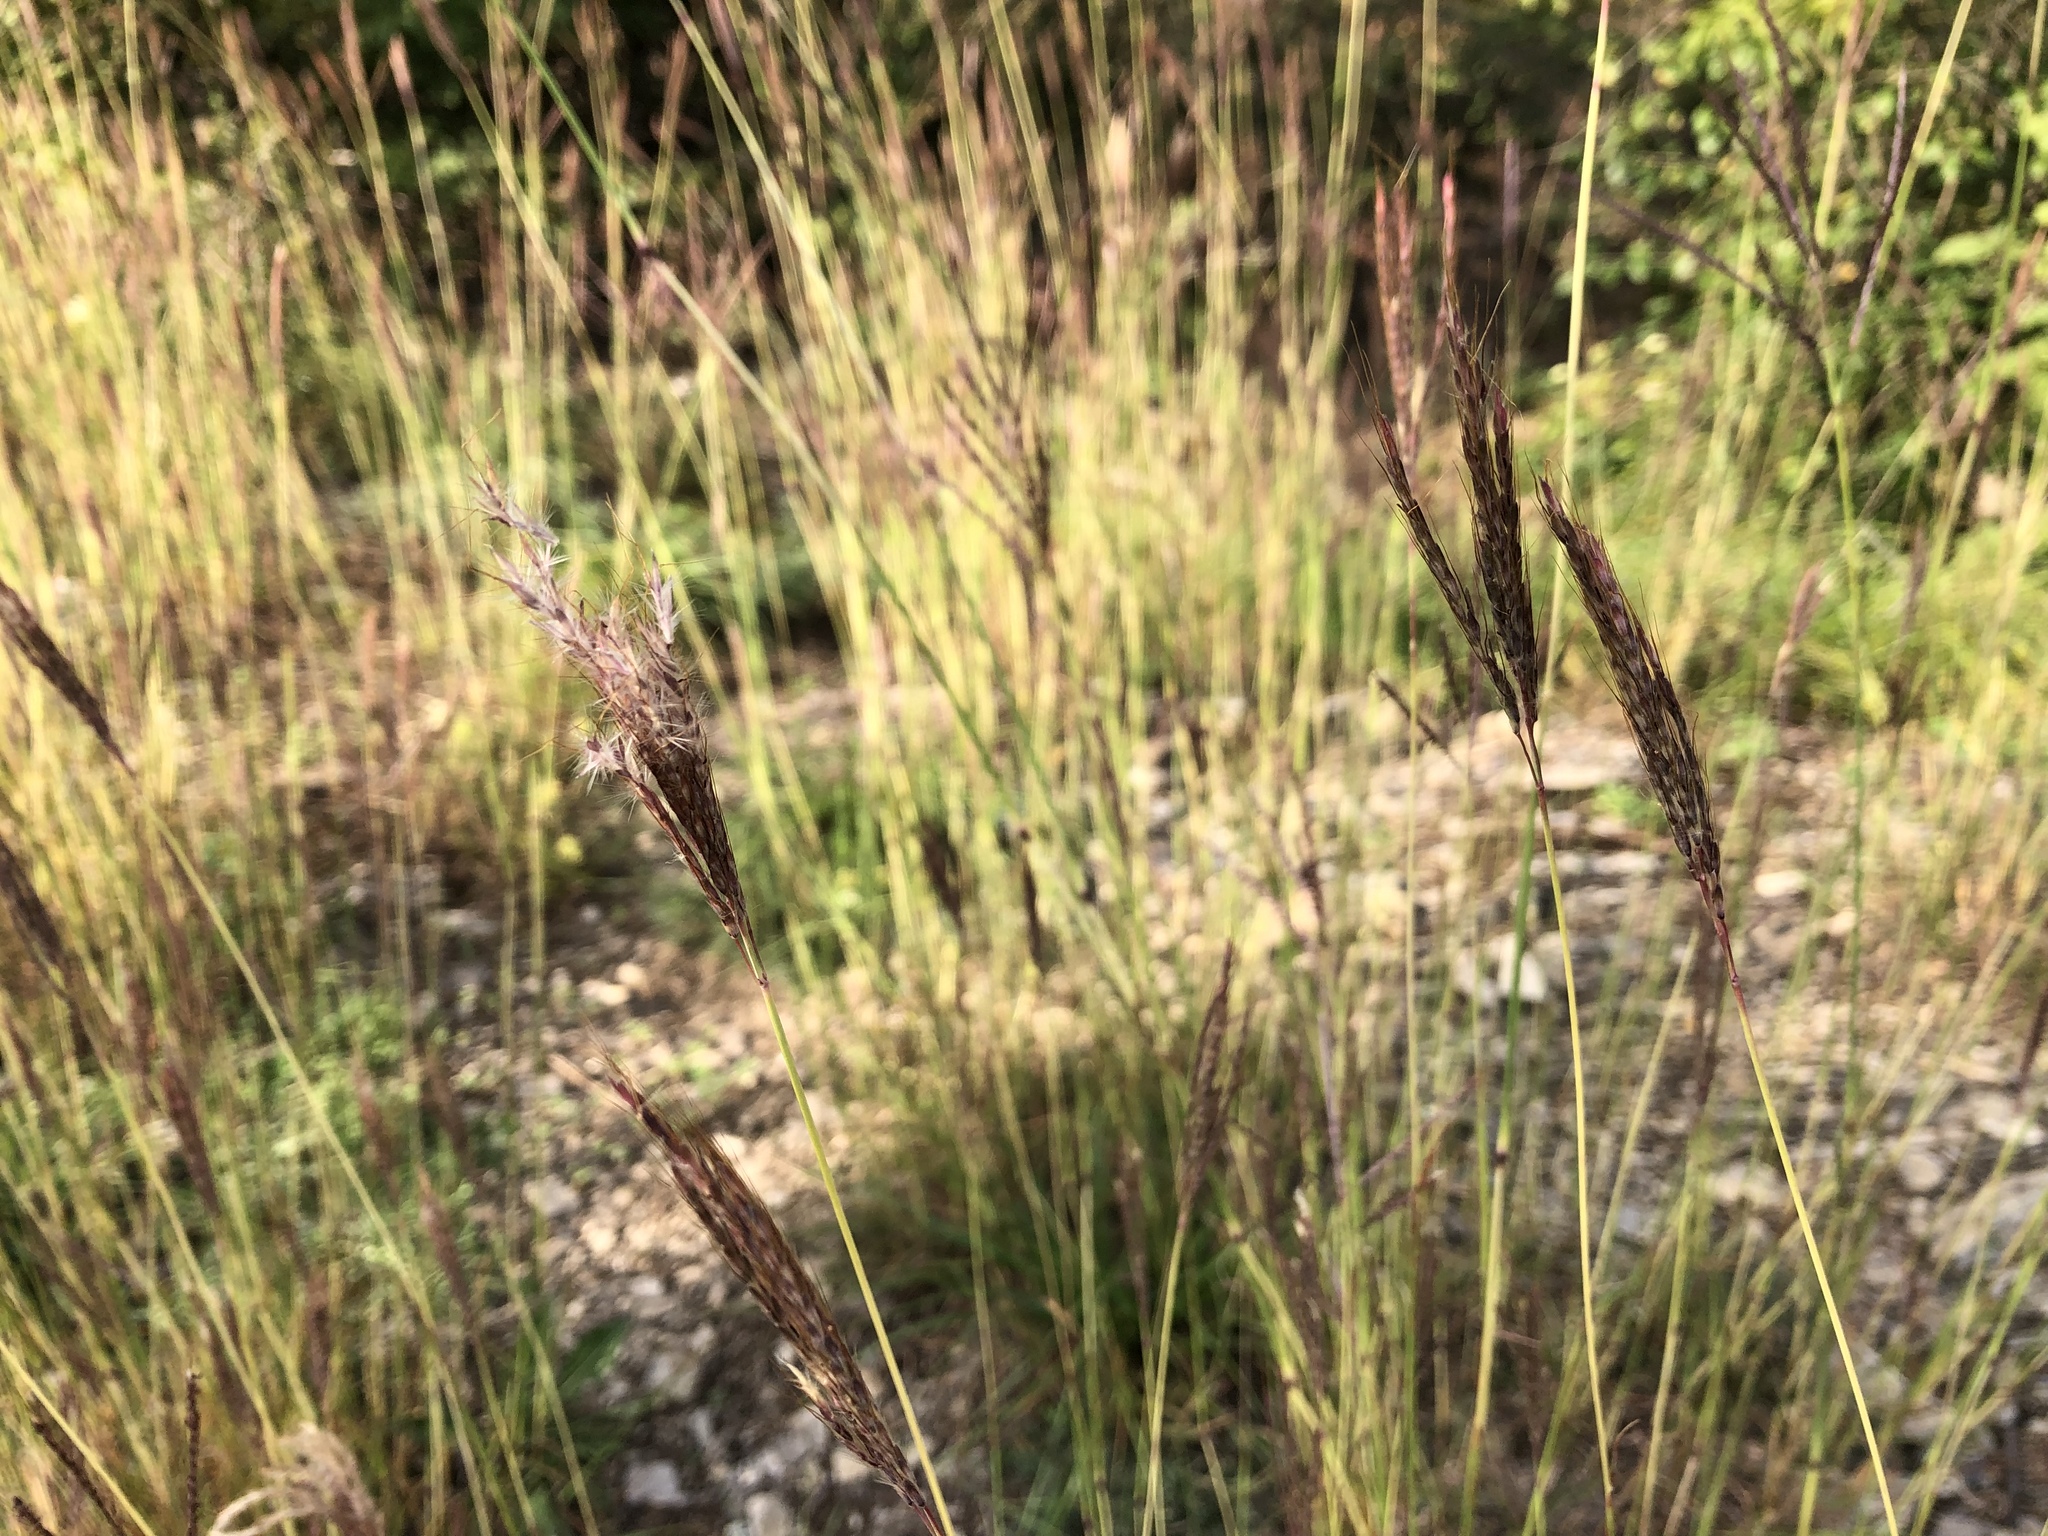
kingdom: Plantae
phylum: Tracheophyta
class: Liliopsida
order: Poales
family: Poaceae
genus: Bothriochloa
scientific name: Bothriochloa ischaemum
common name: Yellow bluestem
